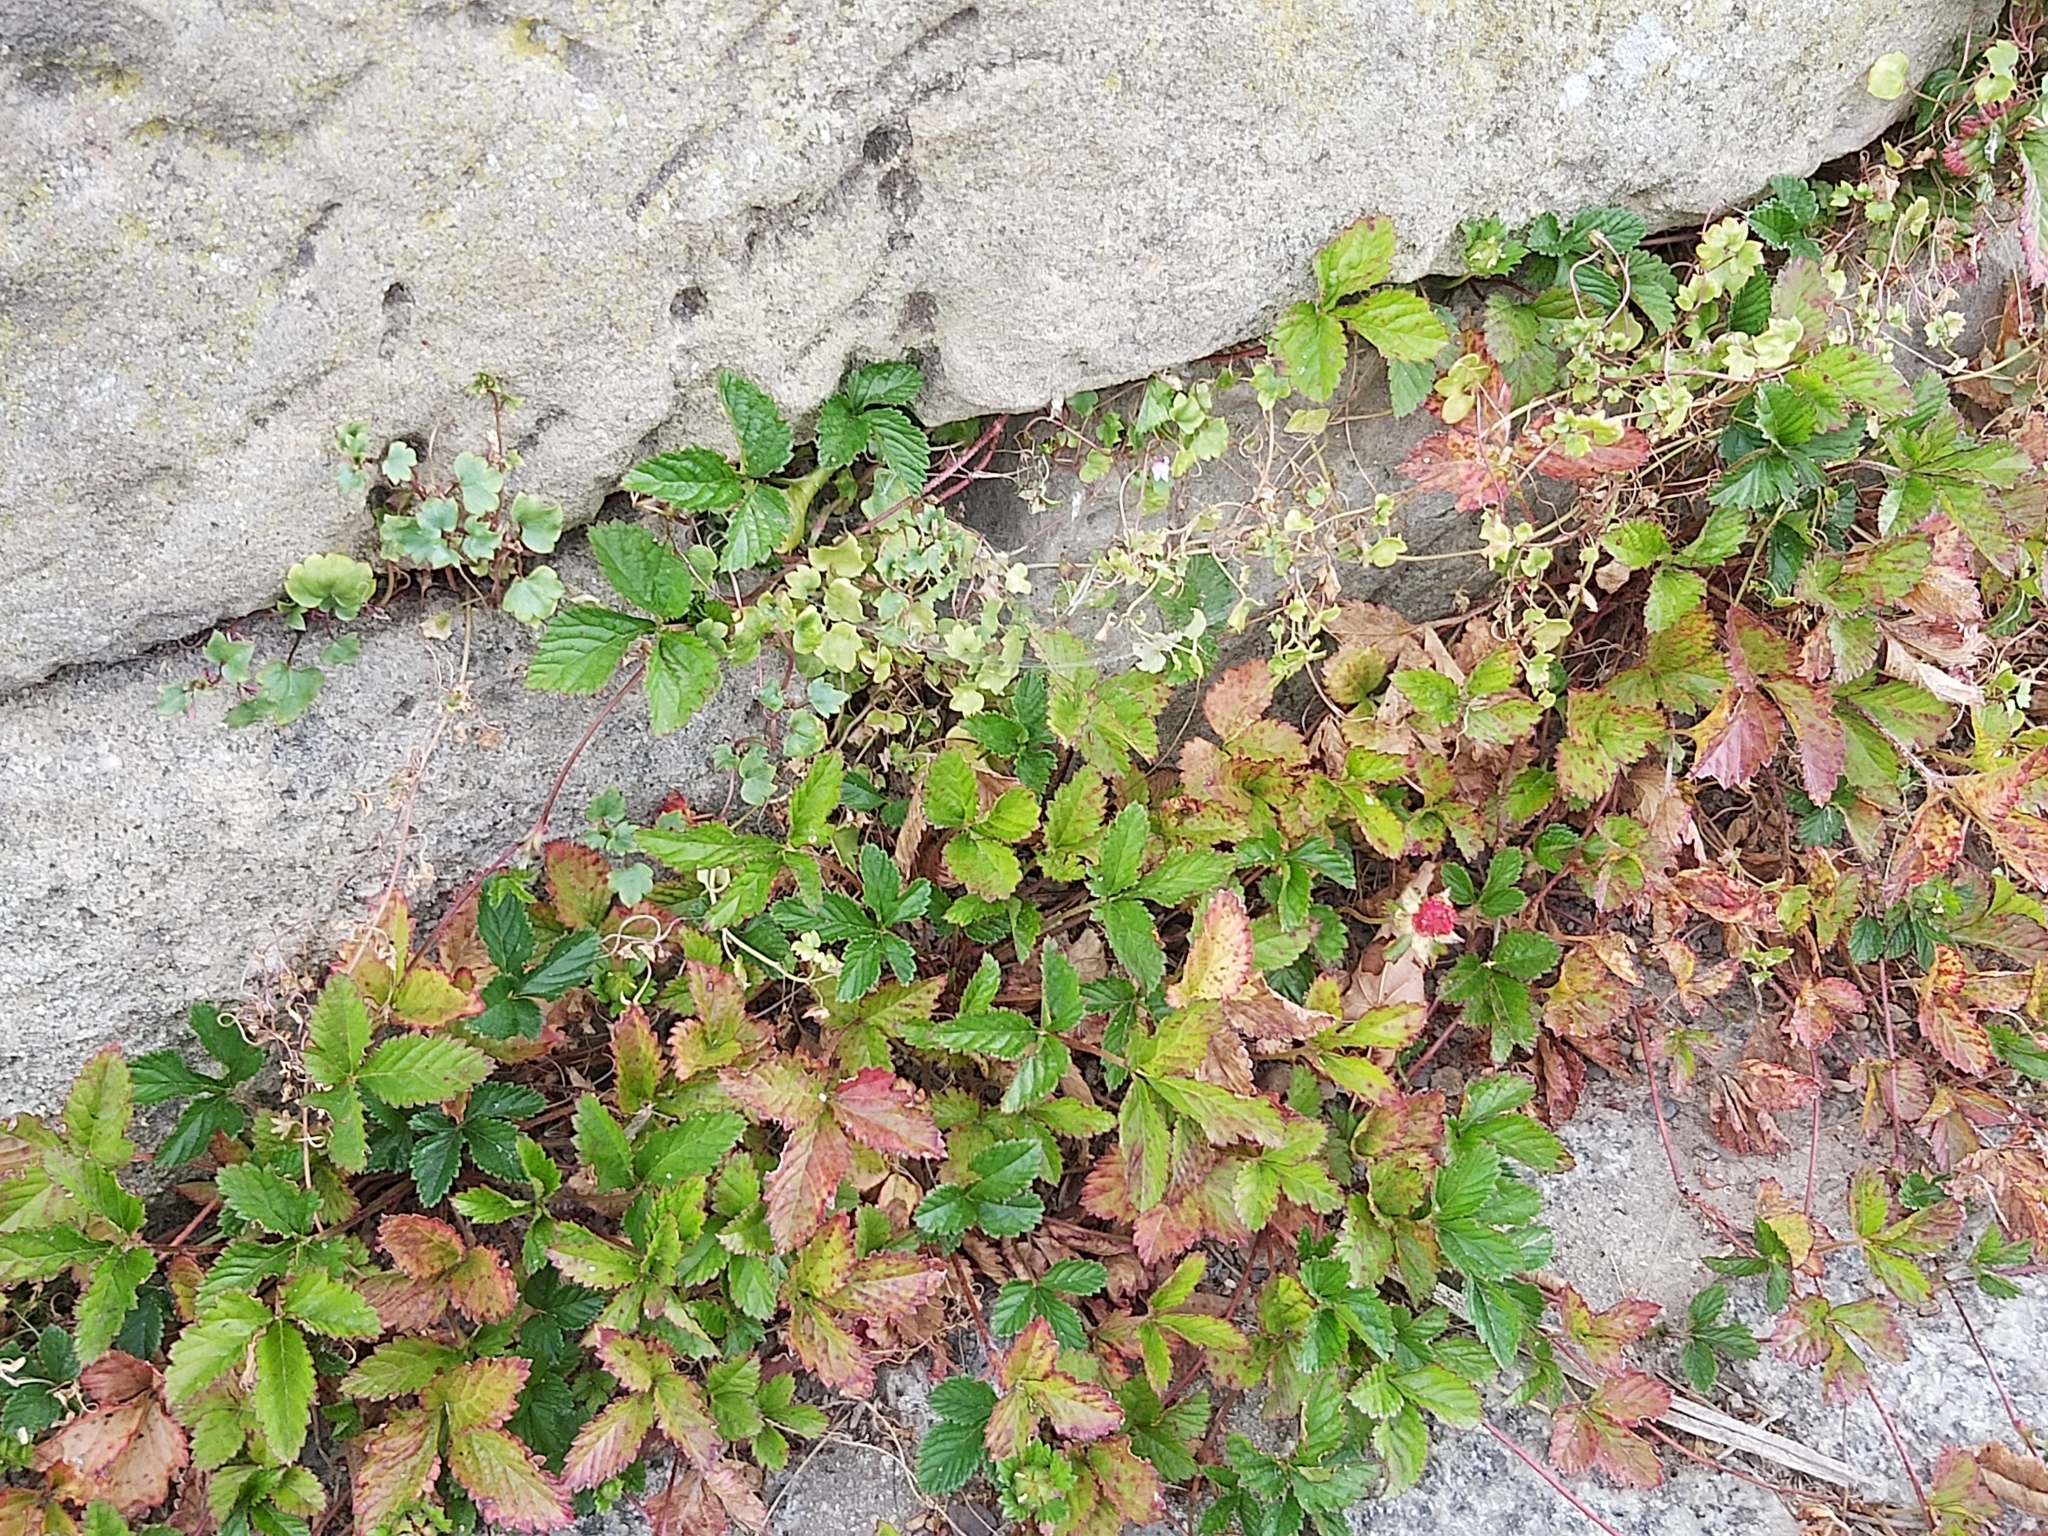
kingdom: Plantae
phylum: Tracheophyta
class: Magnoliopsida
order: Rosales
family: Rosaceae
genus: Potentilla
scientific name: Potentilla indica
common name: Yellow-flowered strawberry
